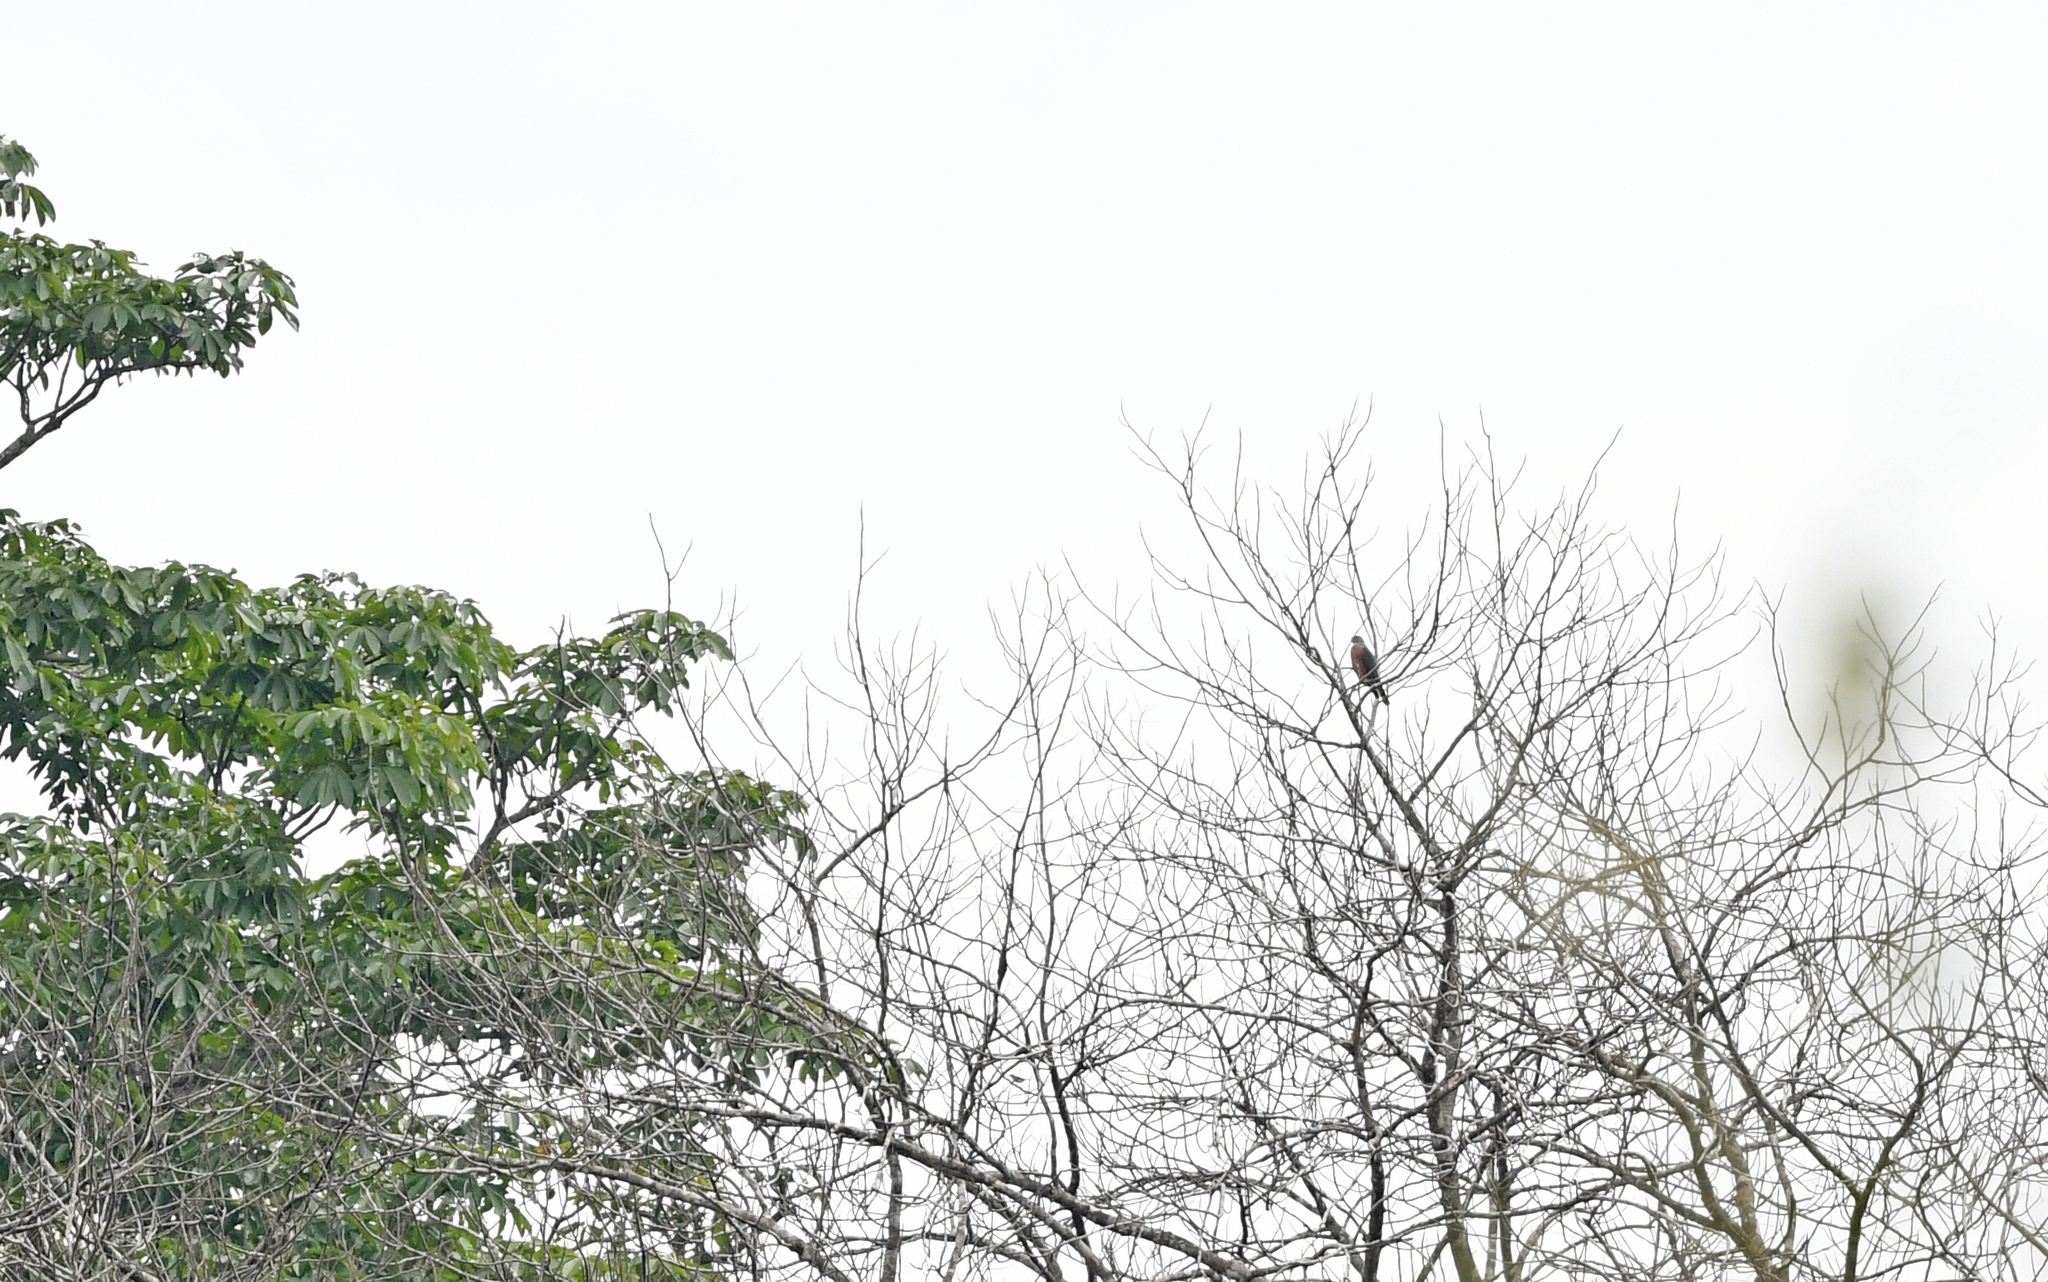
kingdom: Animalia
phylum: Chordata
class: Aves
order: Accipitriformes
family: Accipitridae
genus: Harpagus
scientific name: Harpagus bidentatus
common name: Double-toothed kite
